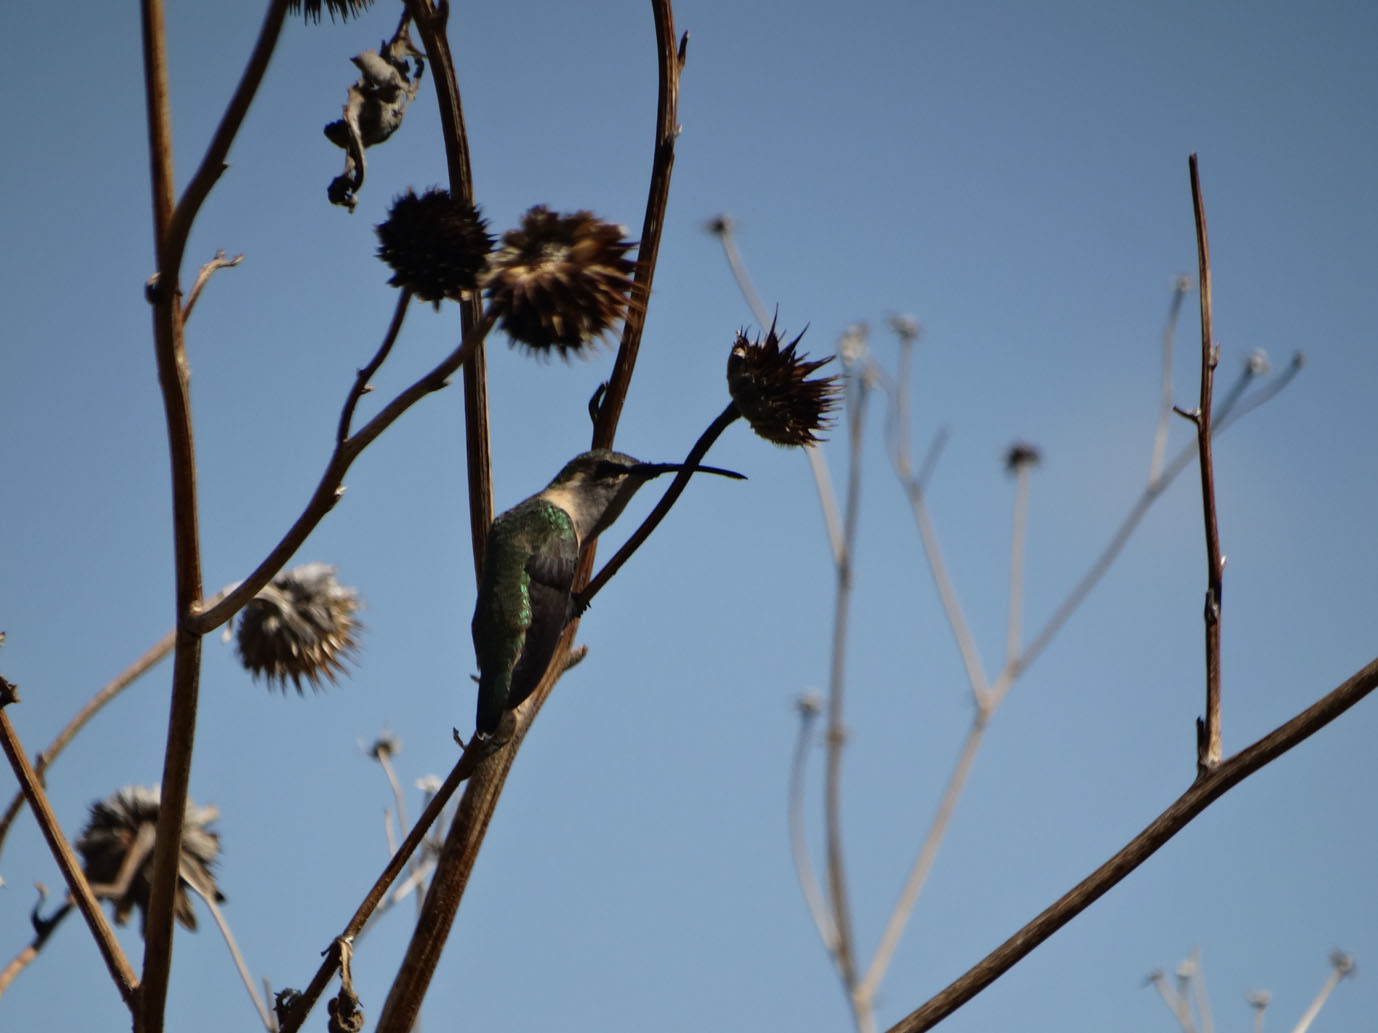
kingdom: Animalia
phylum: Chordata
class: Aves
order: Apodiformes
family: Trochilidae
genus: Calothorax
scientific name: Calothorax lucifer
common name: Lucifer sheartail
